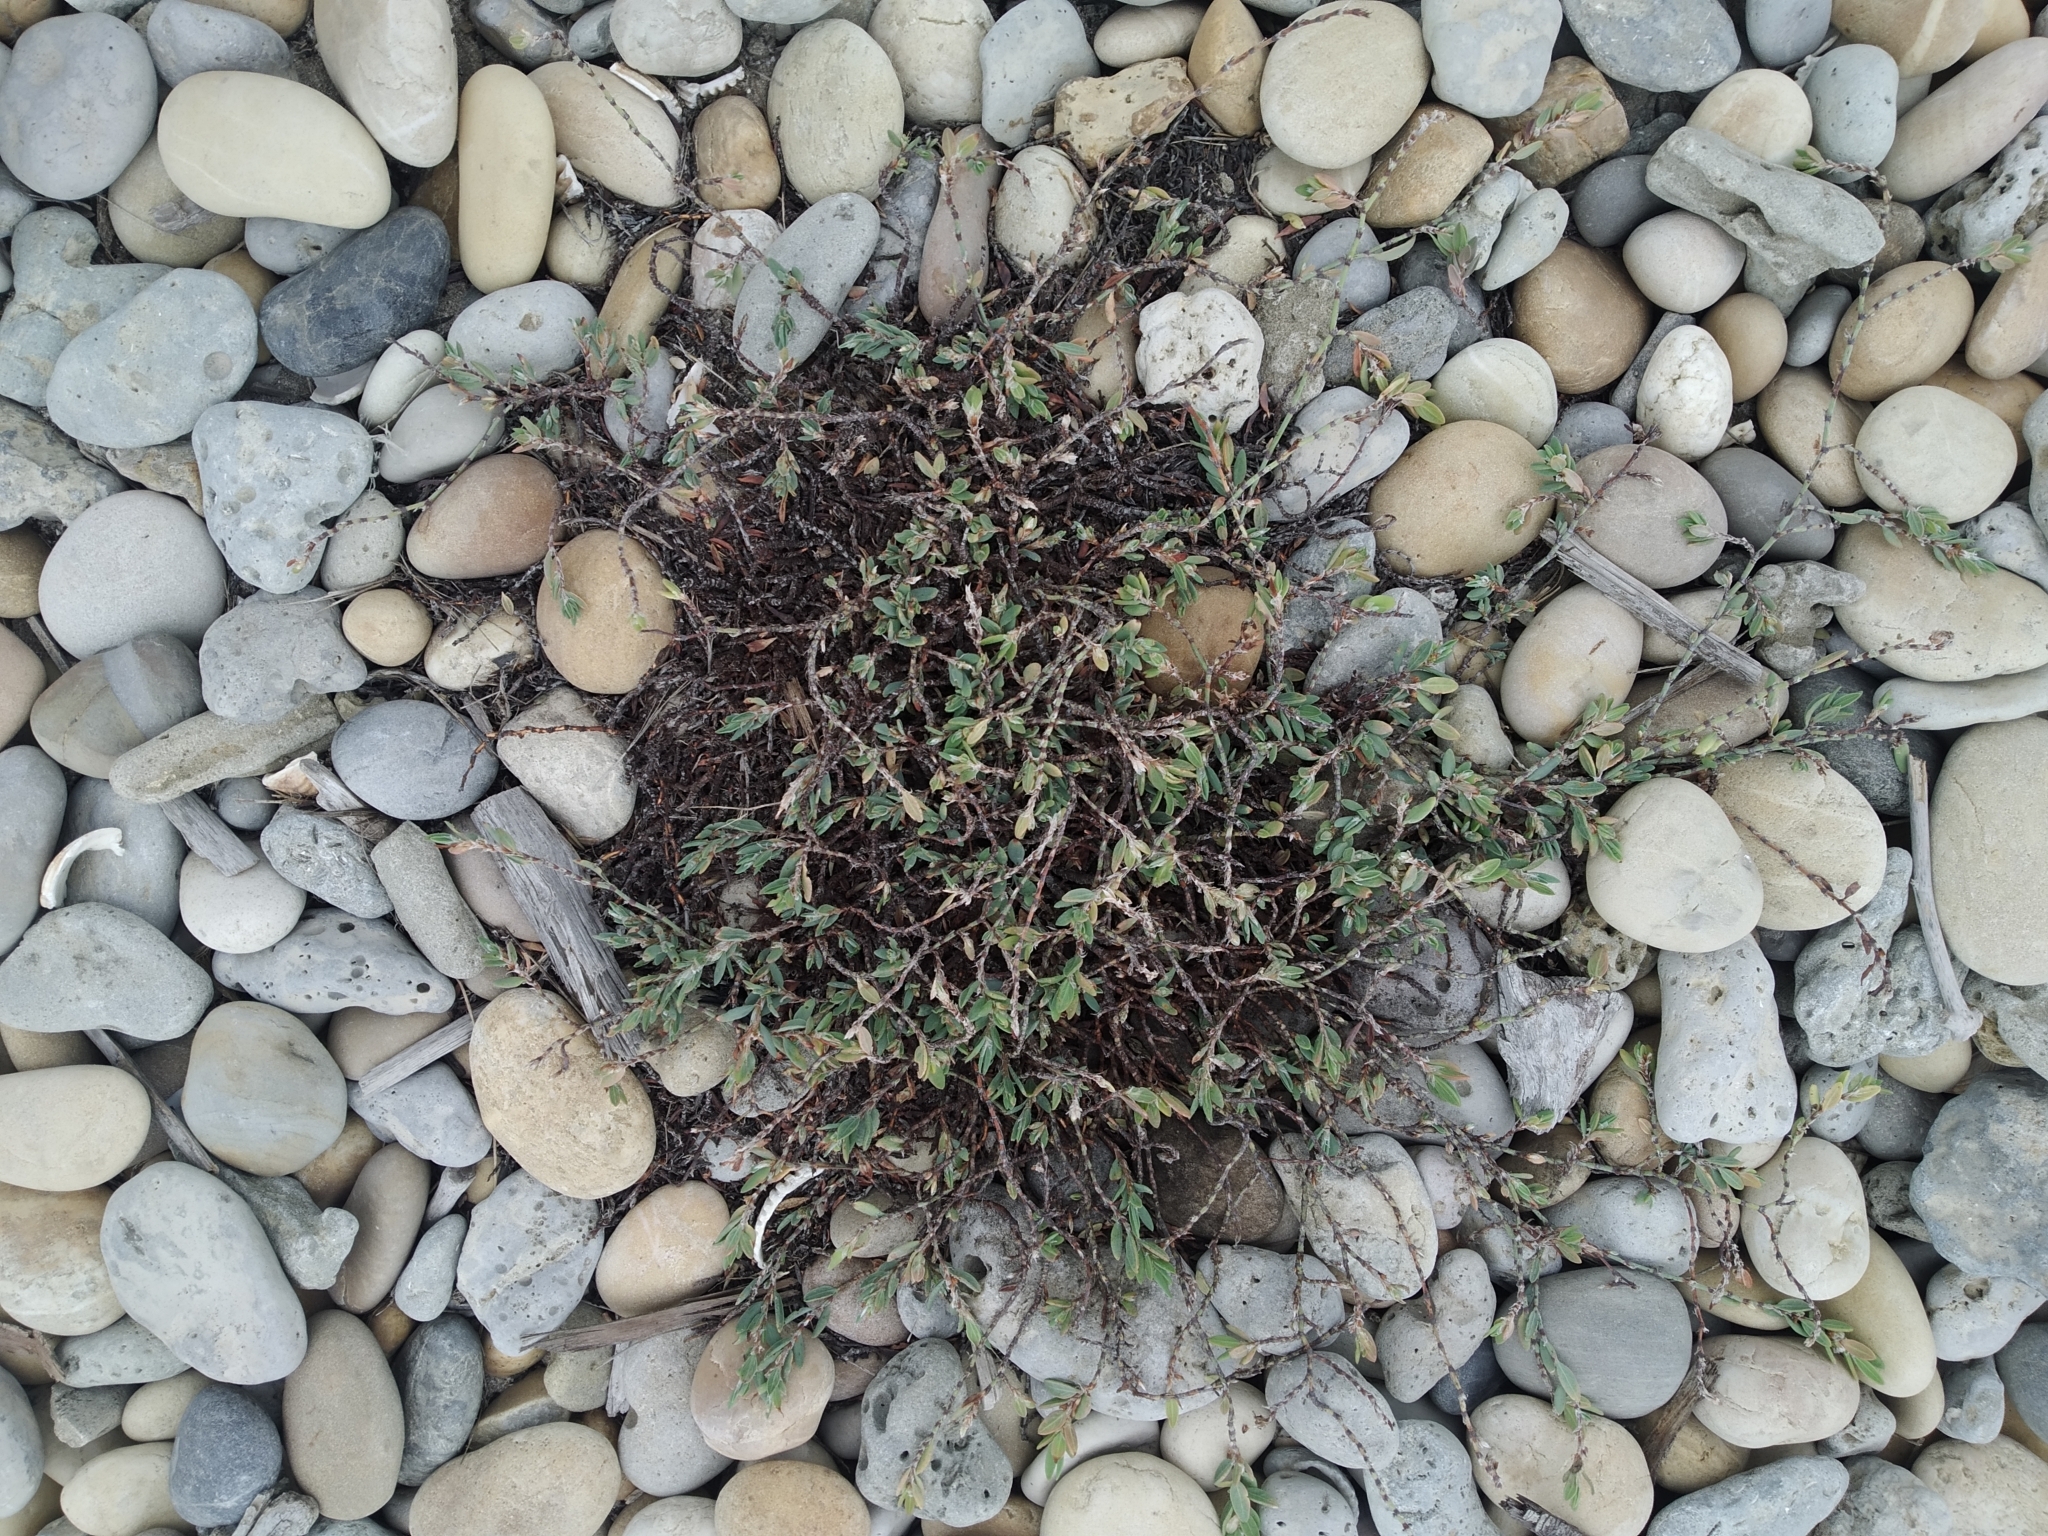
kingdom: Plantae
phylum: Tracheophyta
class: Magnoliopsida
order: Caryophyllales
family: Polygonaceae
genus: Polygonum
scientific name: Polygonum maritimum
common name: Sea knotgrass
